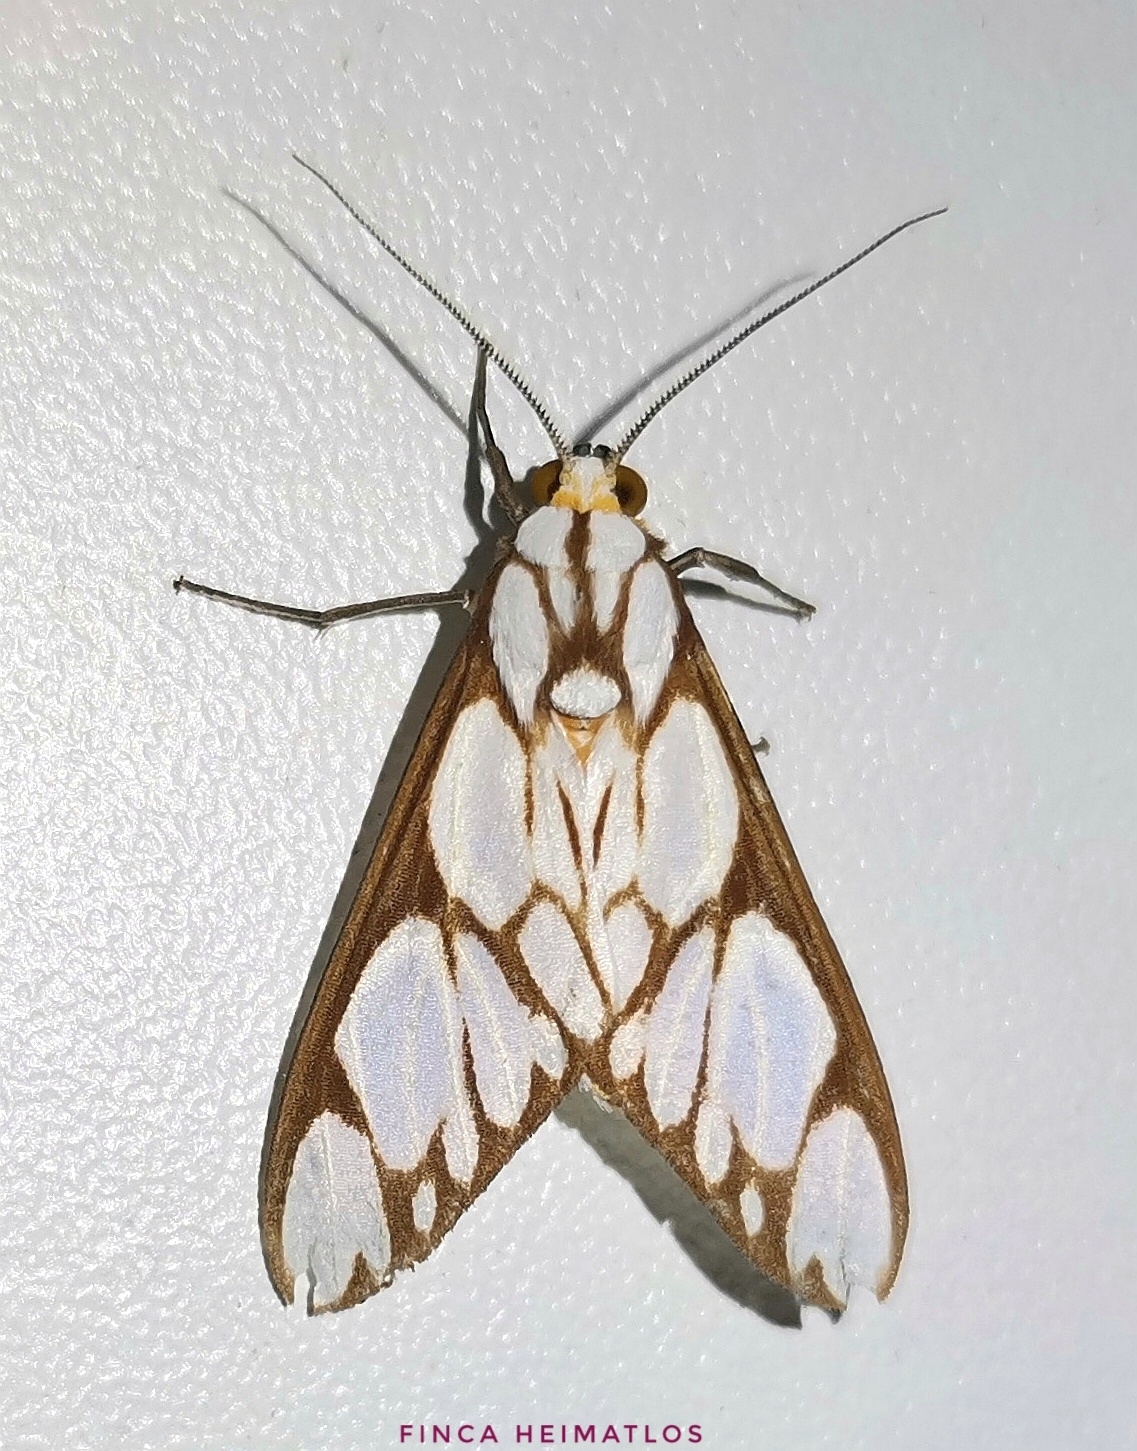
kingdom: Animalia
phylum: Arthropoda
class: Insecta
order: Lepidoptera
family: Erebidae
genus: Robinsonia
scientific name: Robinsonia multimaculata
